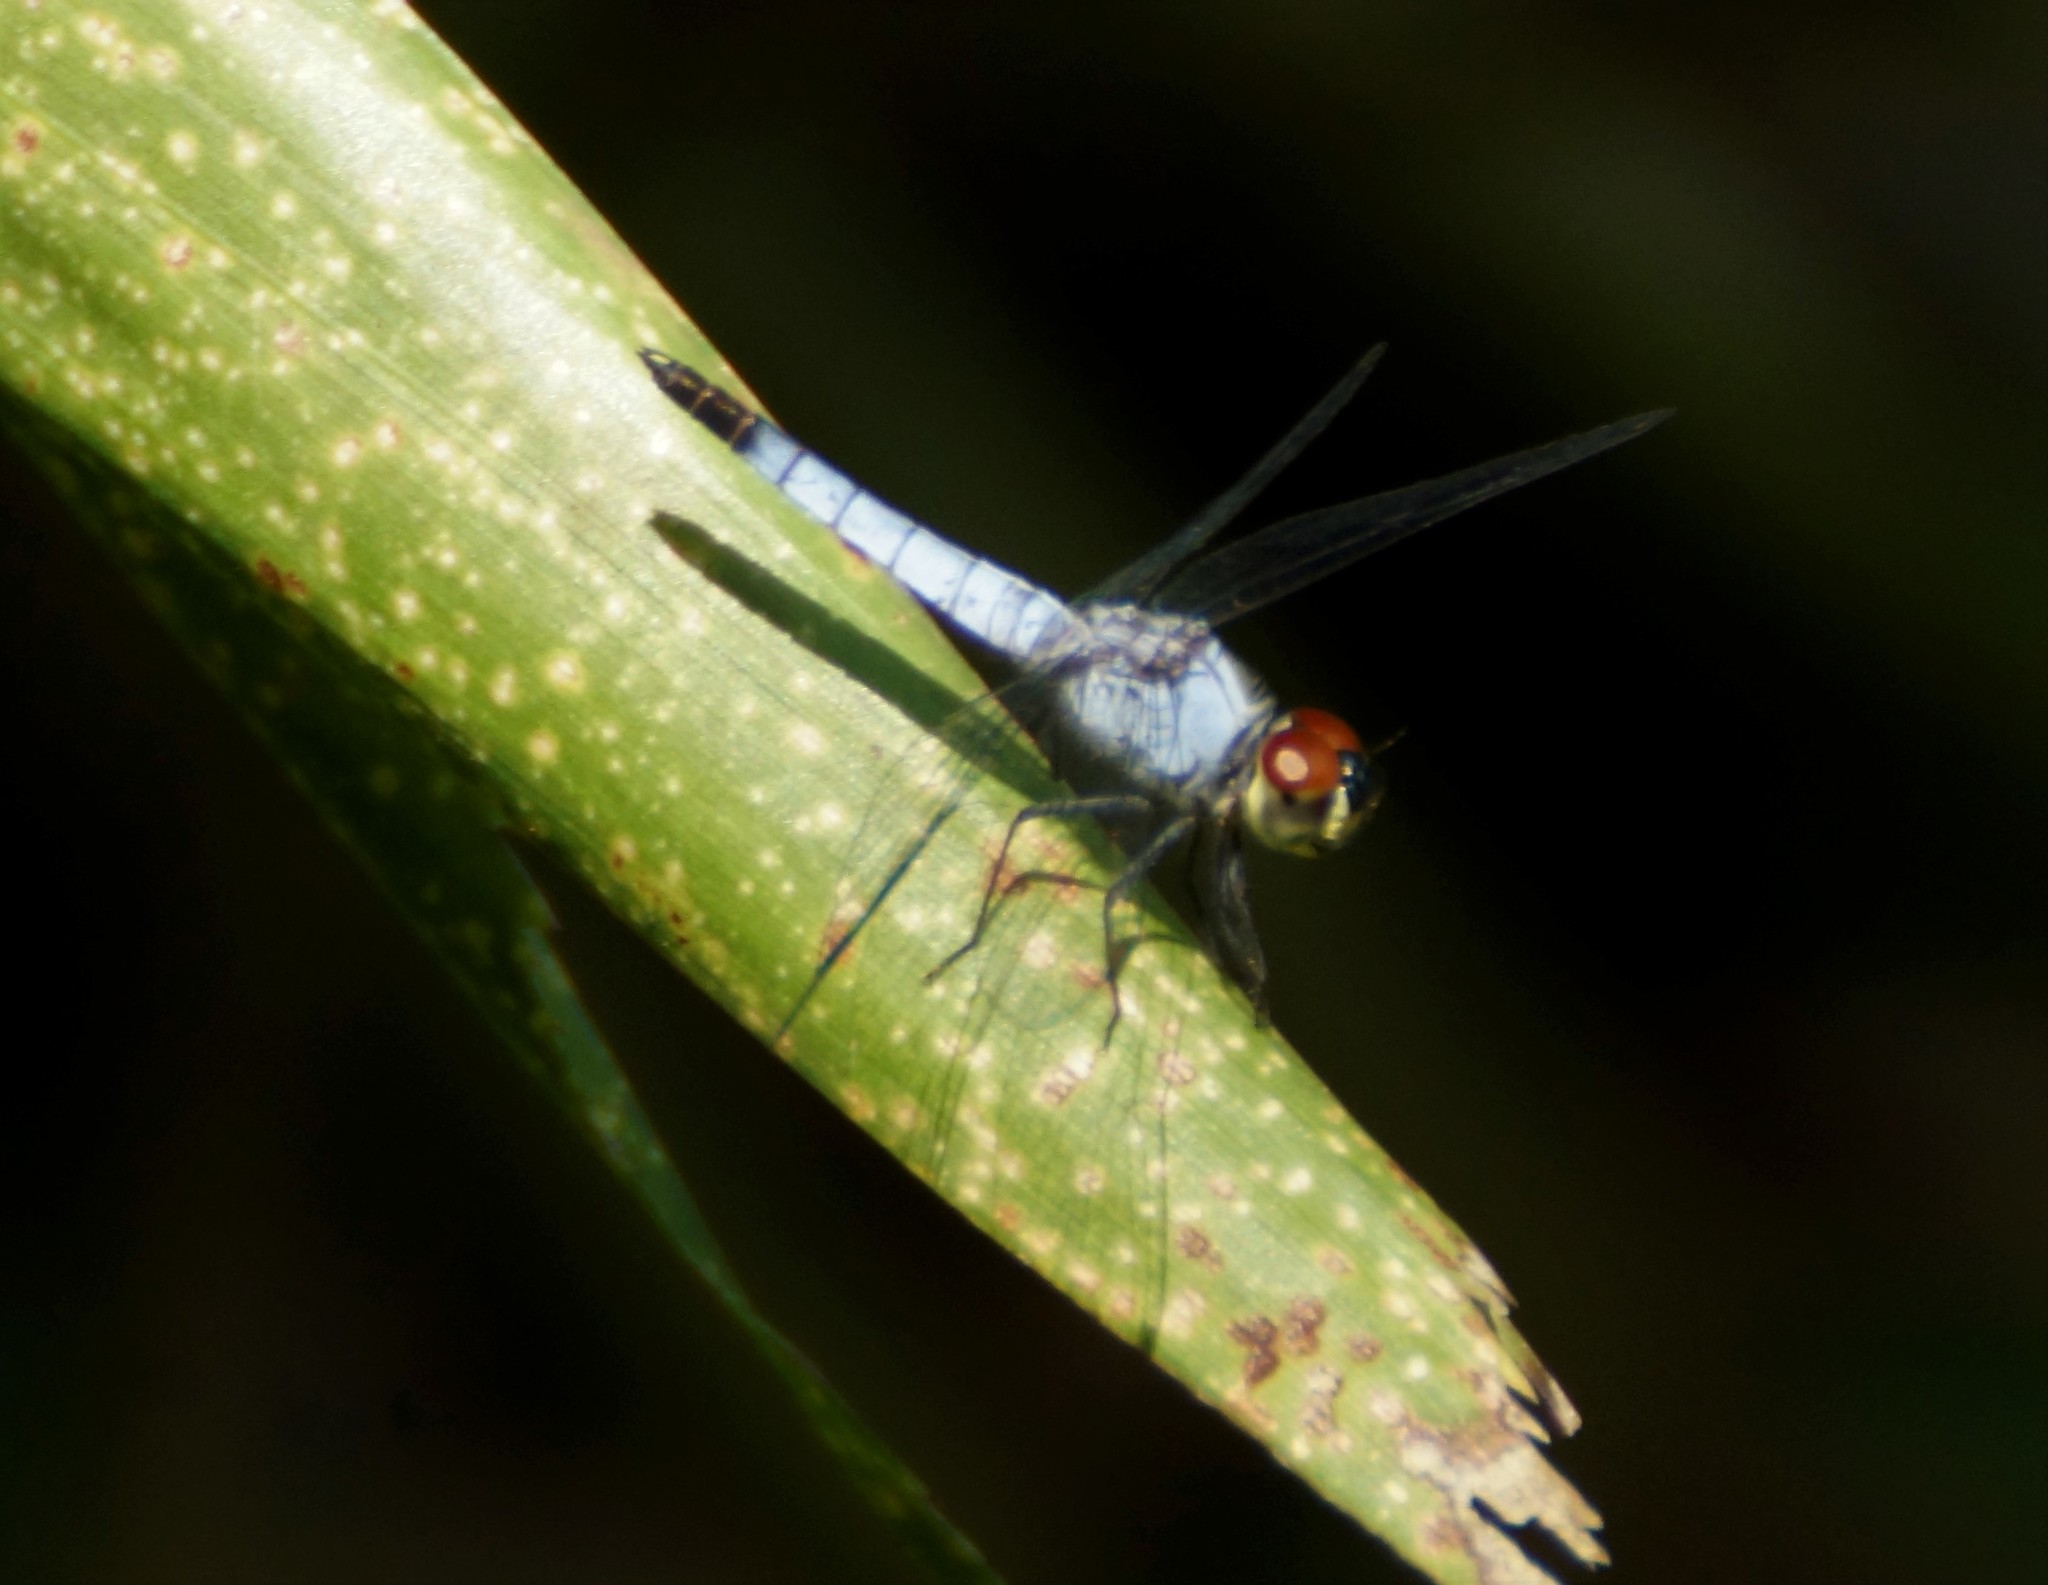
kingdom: Animalia
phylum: Arthropoda
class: Insecta
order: Odonata
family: Libellulidae
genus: Brachydiplax
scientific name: Brachydiplax denticauda
